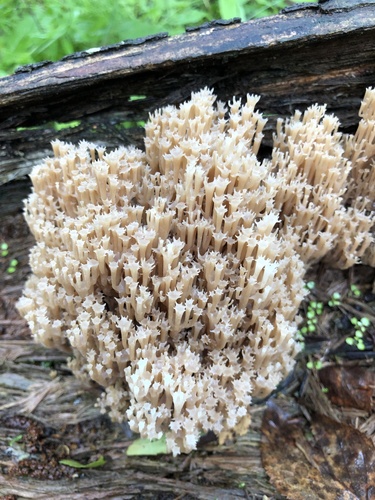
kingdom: Fungi
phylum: Basidiomycota
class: Agaricomycetes
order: Russulales
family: Auriscalpiaceae
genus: Artomyces
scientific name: Artomyces pyxidatus
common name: Crown-tipped coral fungus
